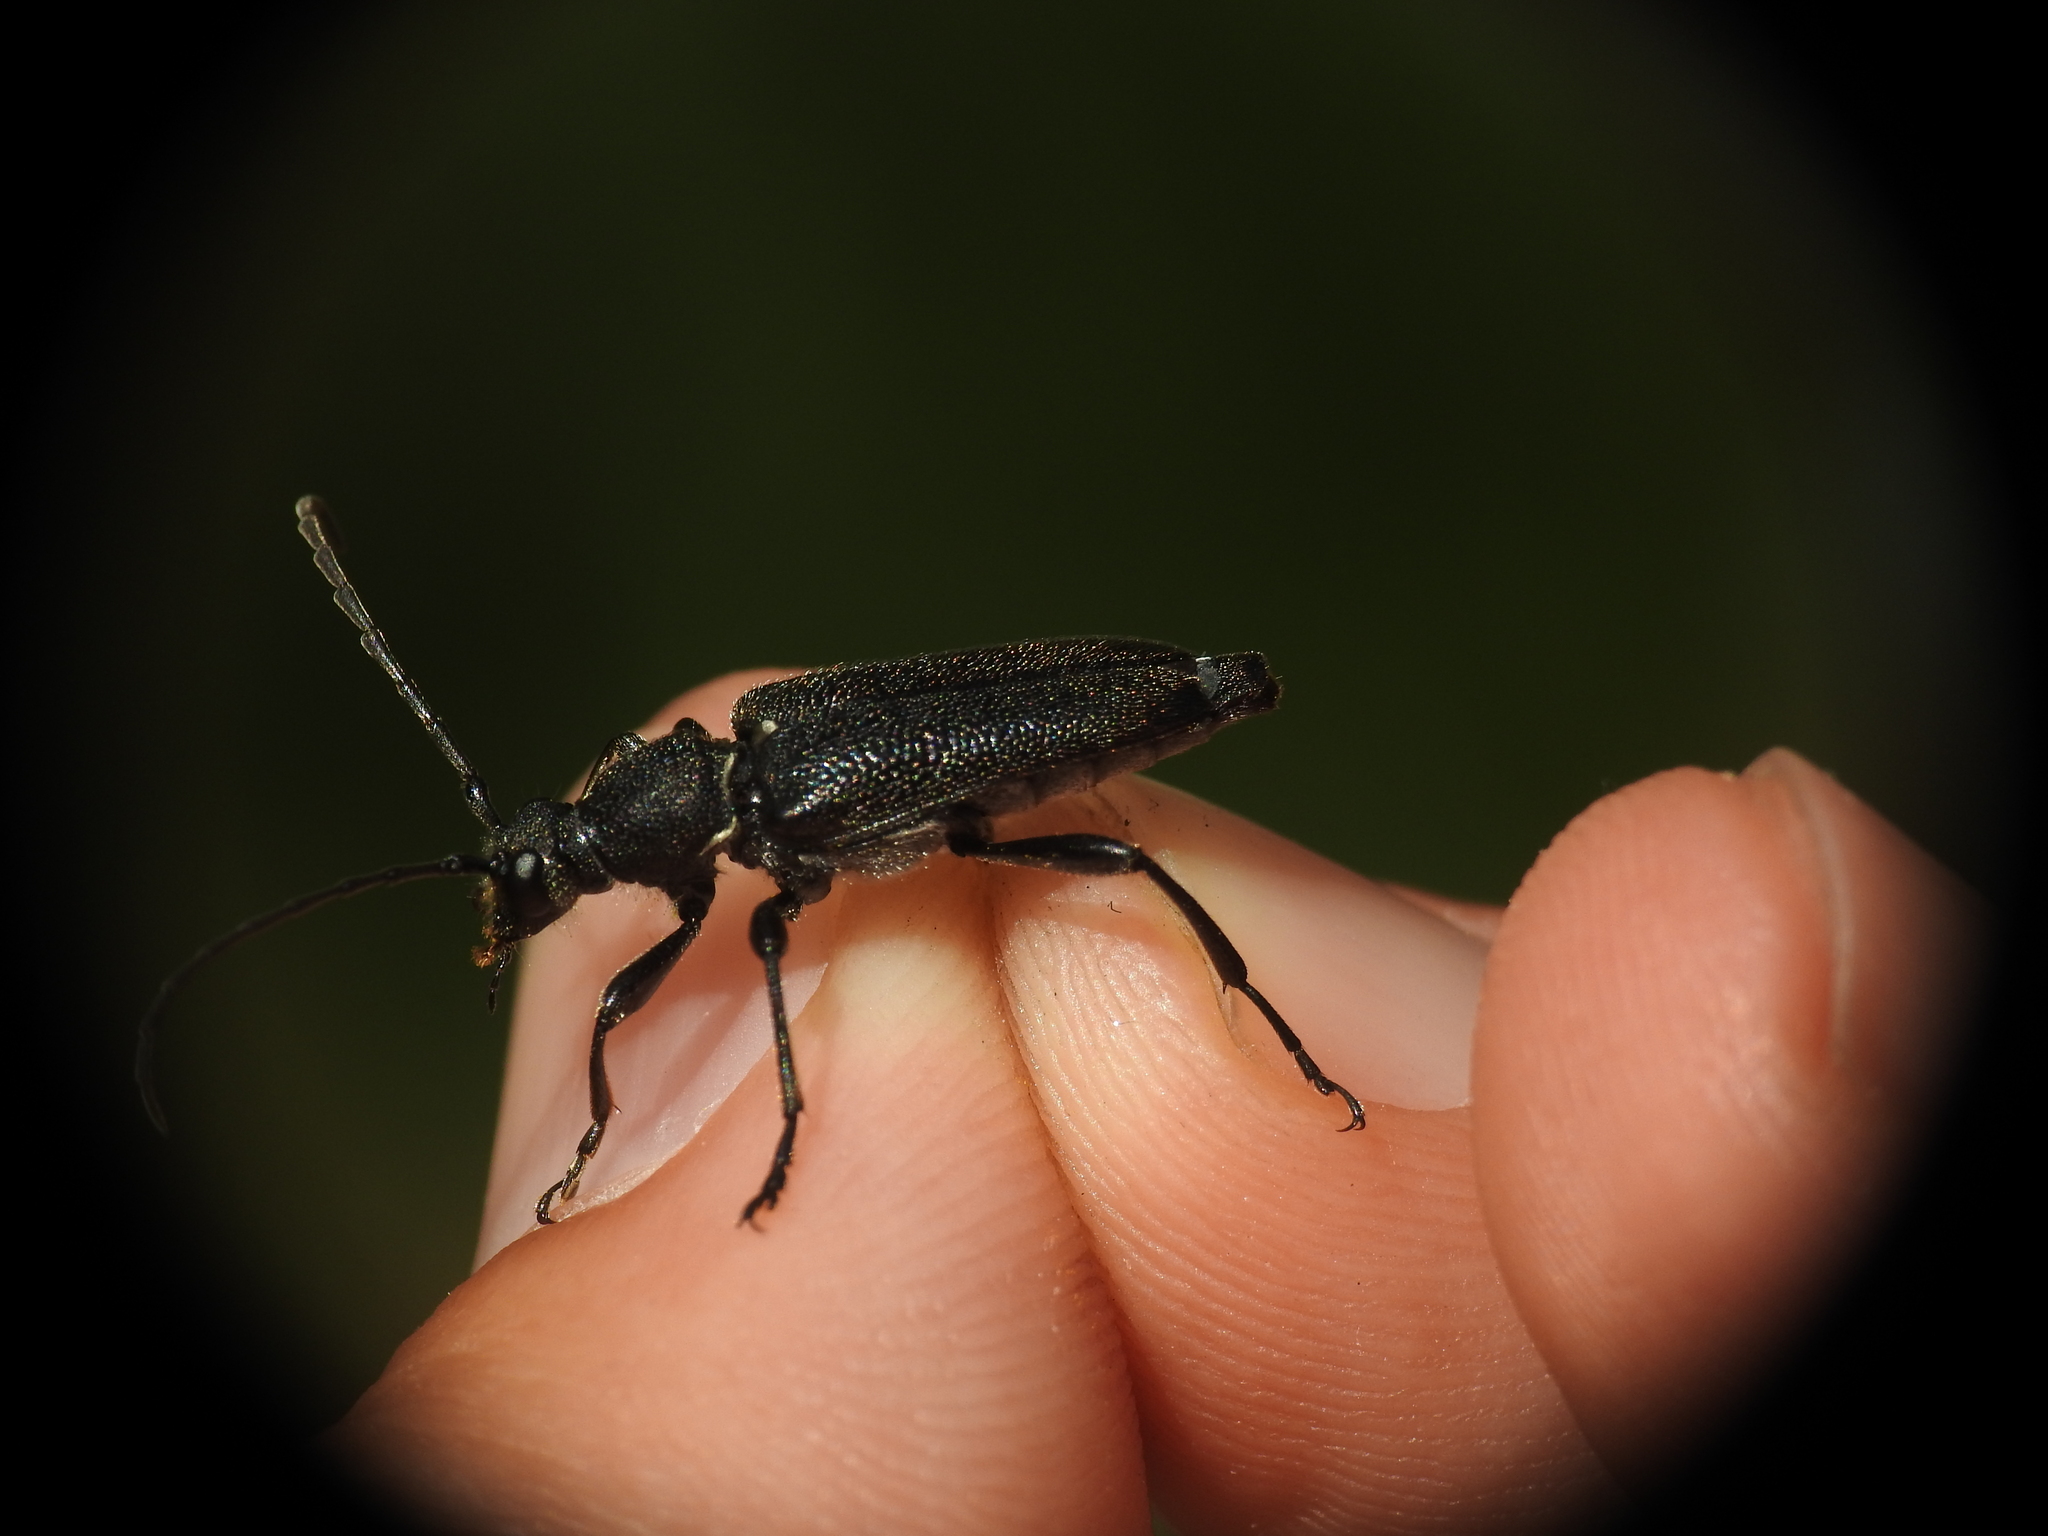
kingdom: Animalia
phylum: Arthropoda
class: Insecta
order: Coleoptera
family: Cerambycidae
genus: Stictoleptura
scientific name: Stictoleptura scutellata
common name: Large black longhorn beetle
